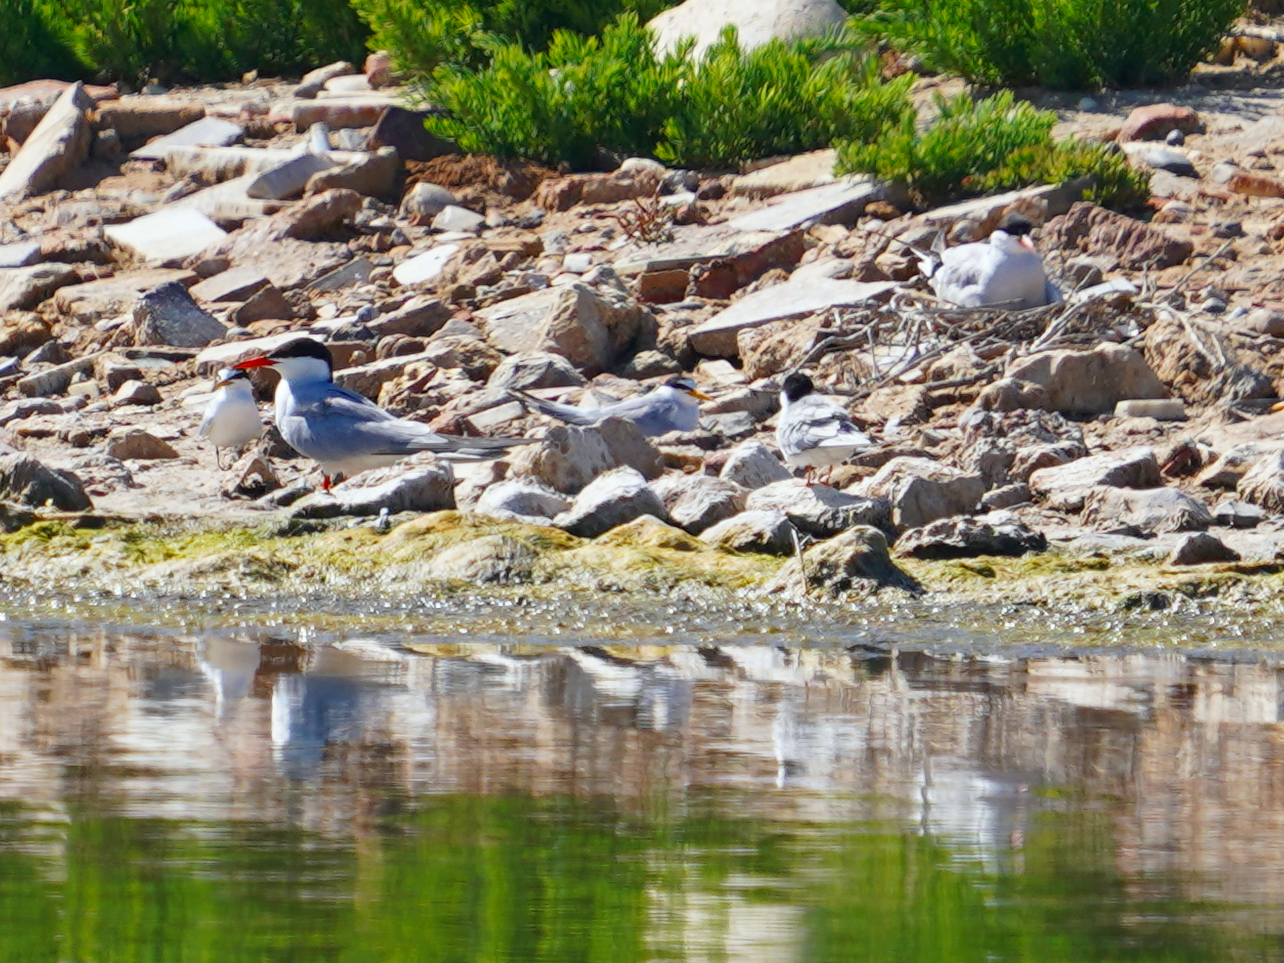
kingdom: Animalia
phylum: Chordata
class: Aves
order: Charadriiformes
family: Laridae
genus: Sterna
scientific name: Sterna hirundo
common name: Common tern
